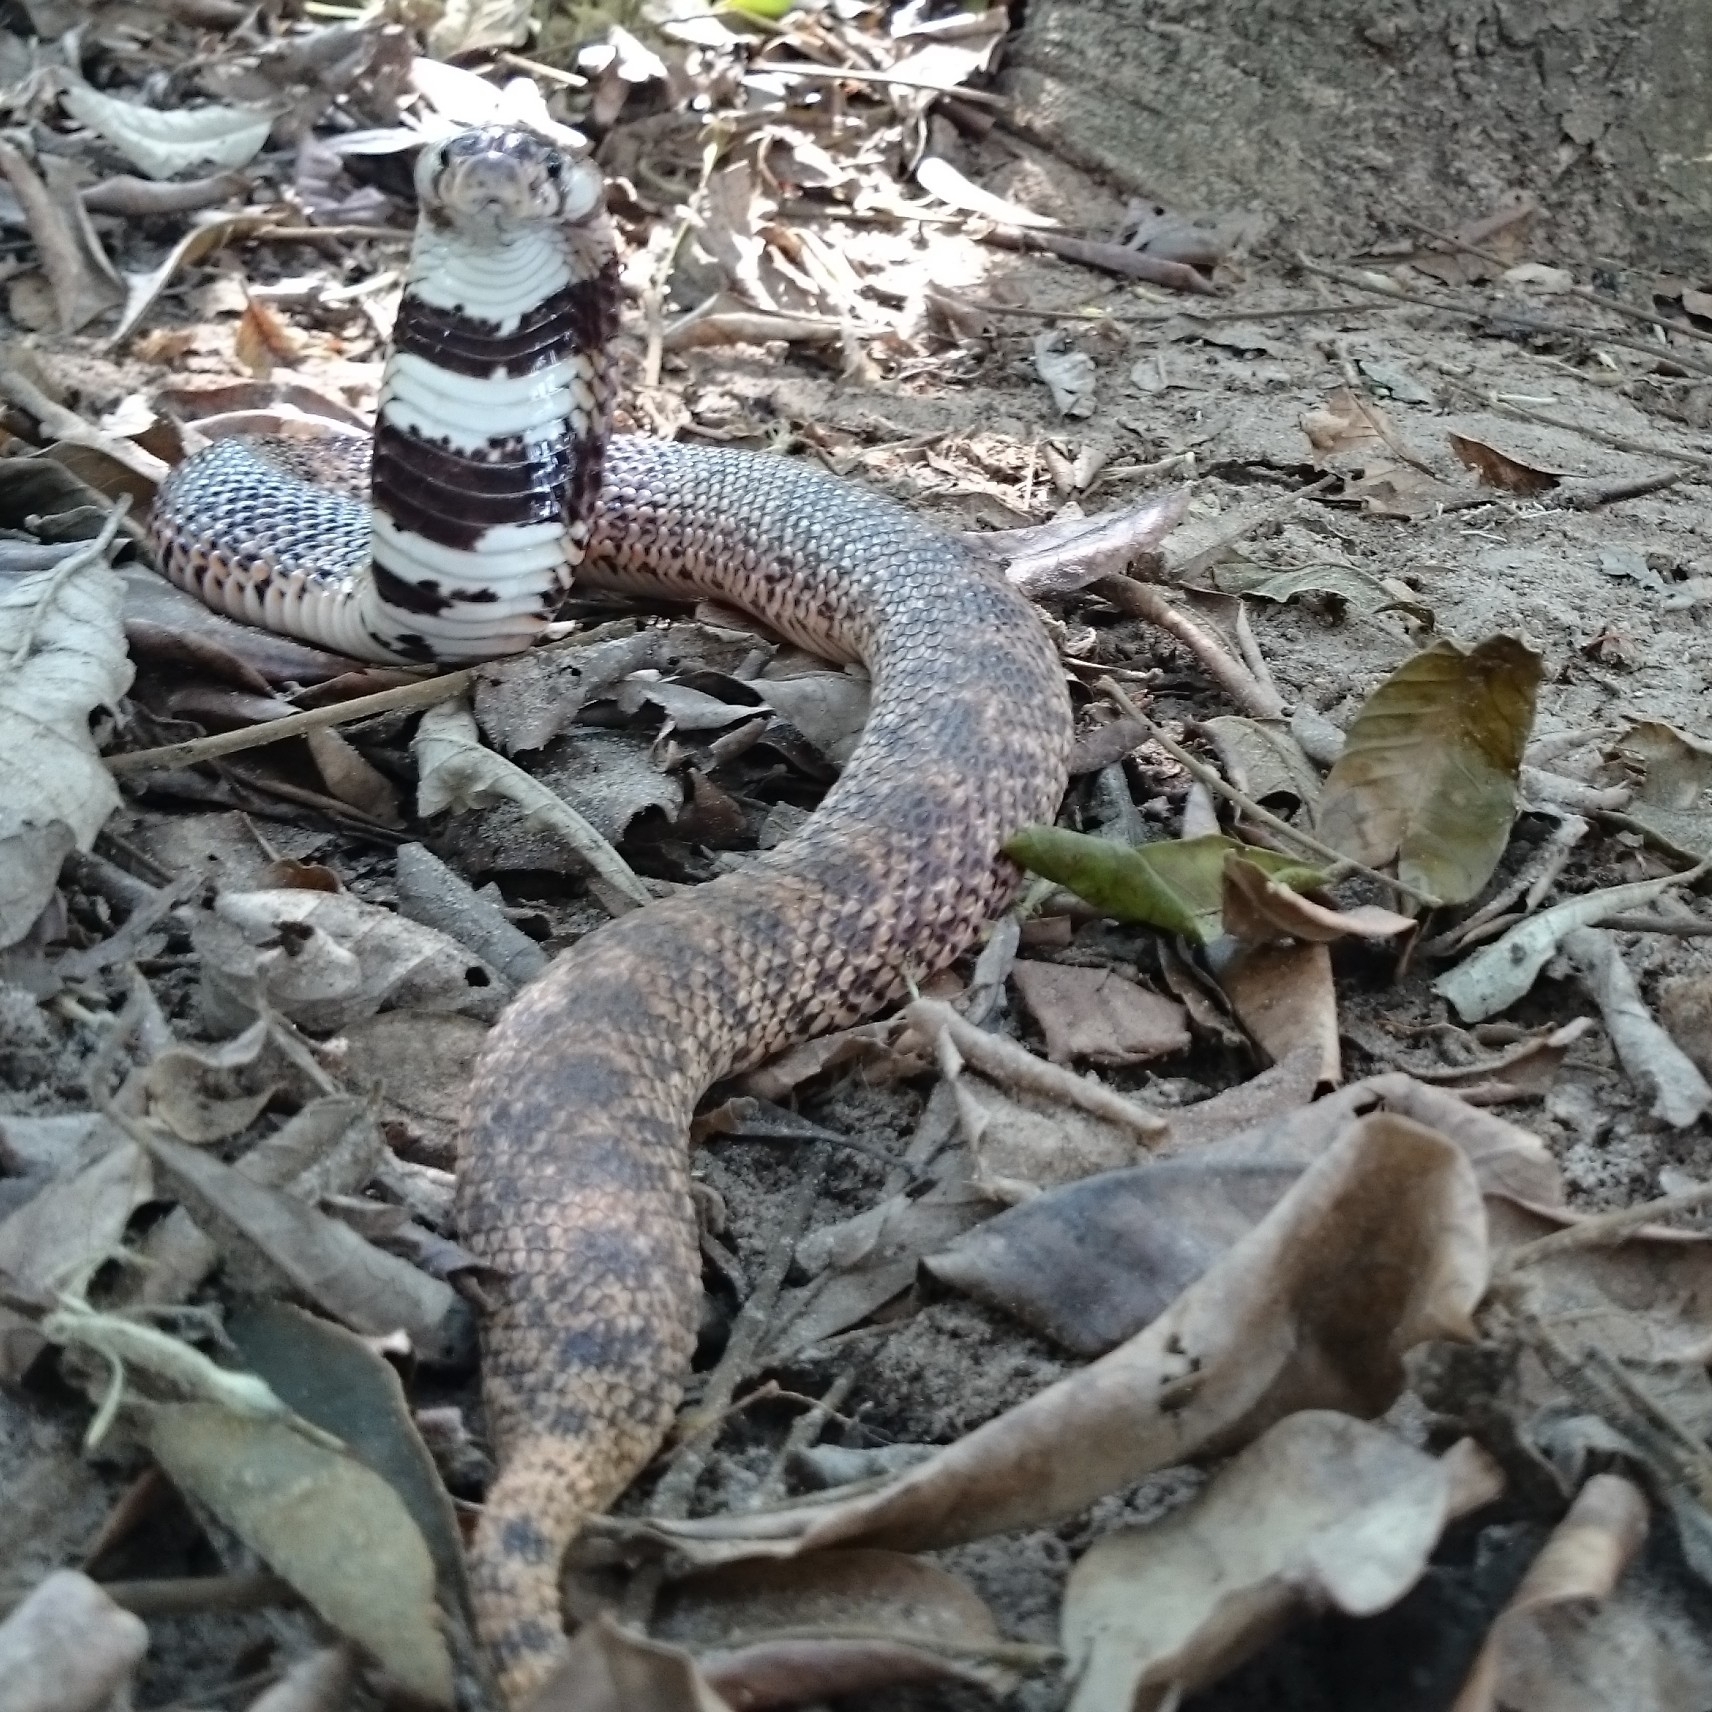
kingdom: Animalia
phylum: Chordata
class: Squamata
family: Elapidae
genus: Aspidelaps
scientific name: Aspidelaps scutatus
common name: Speckled shield cobra
